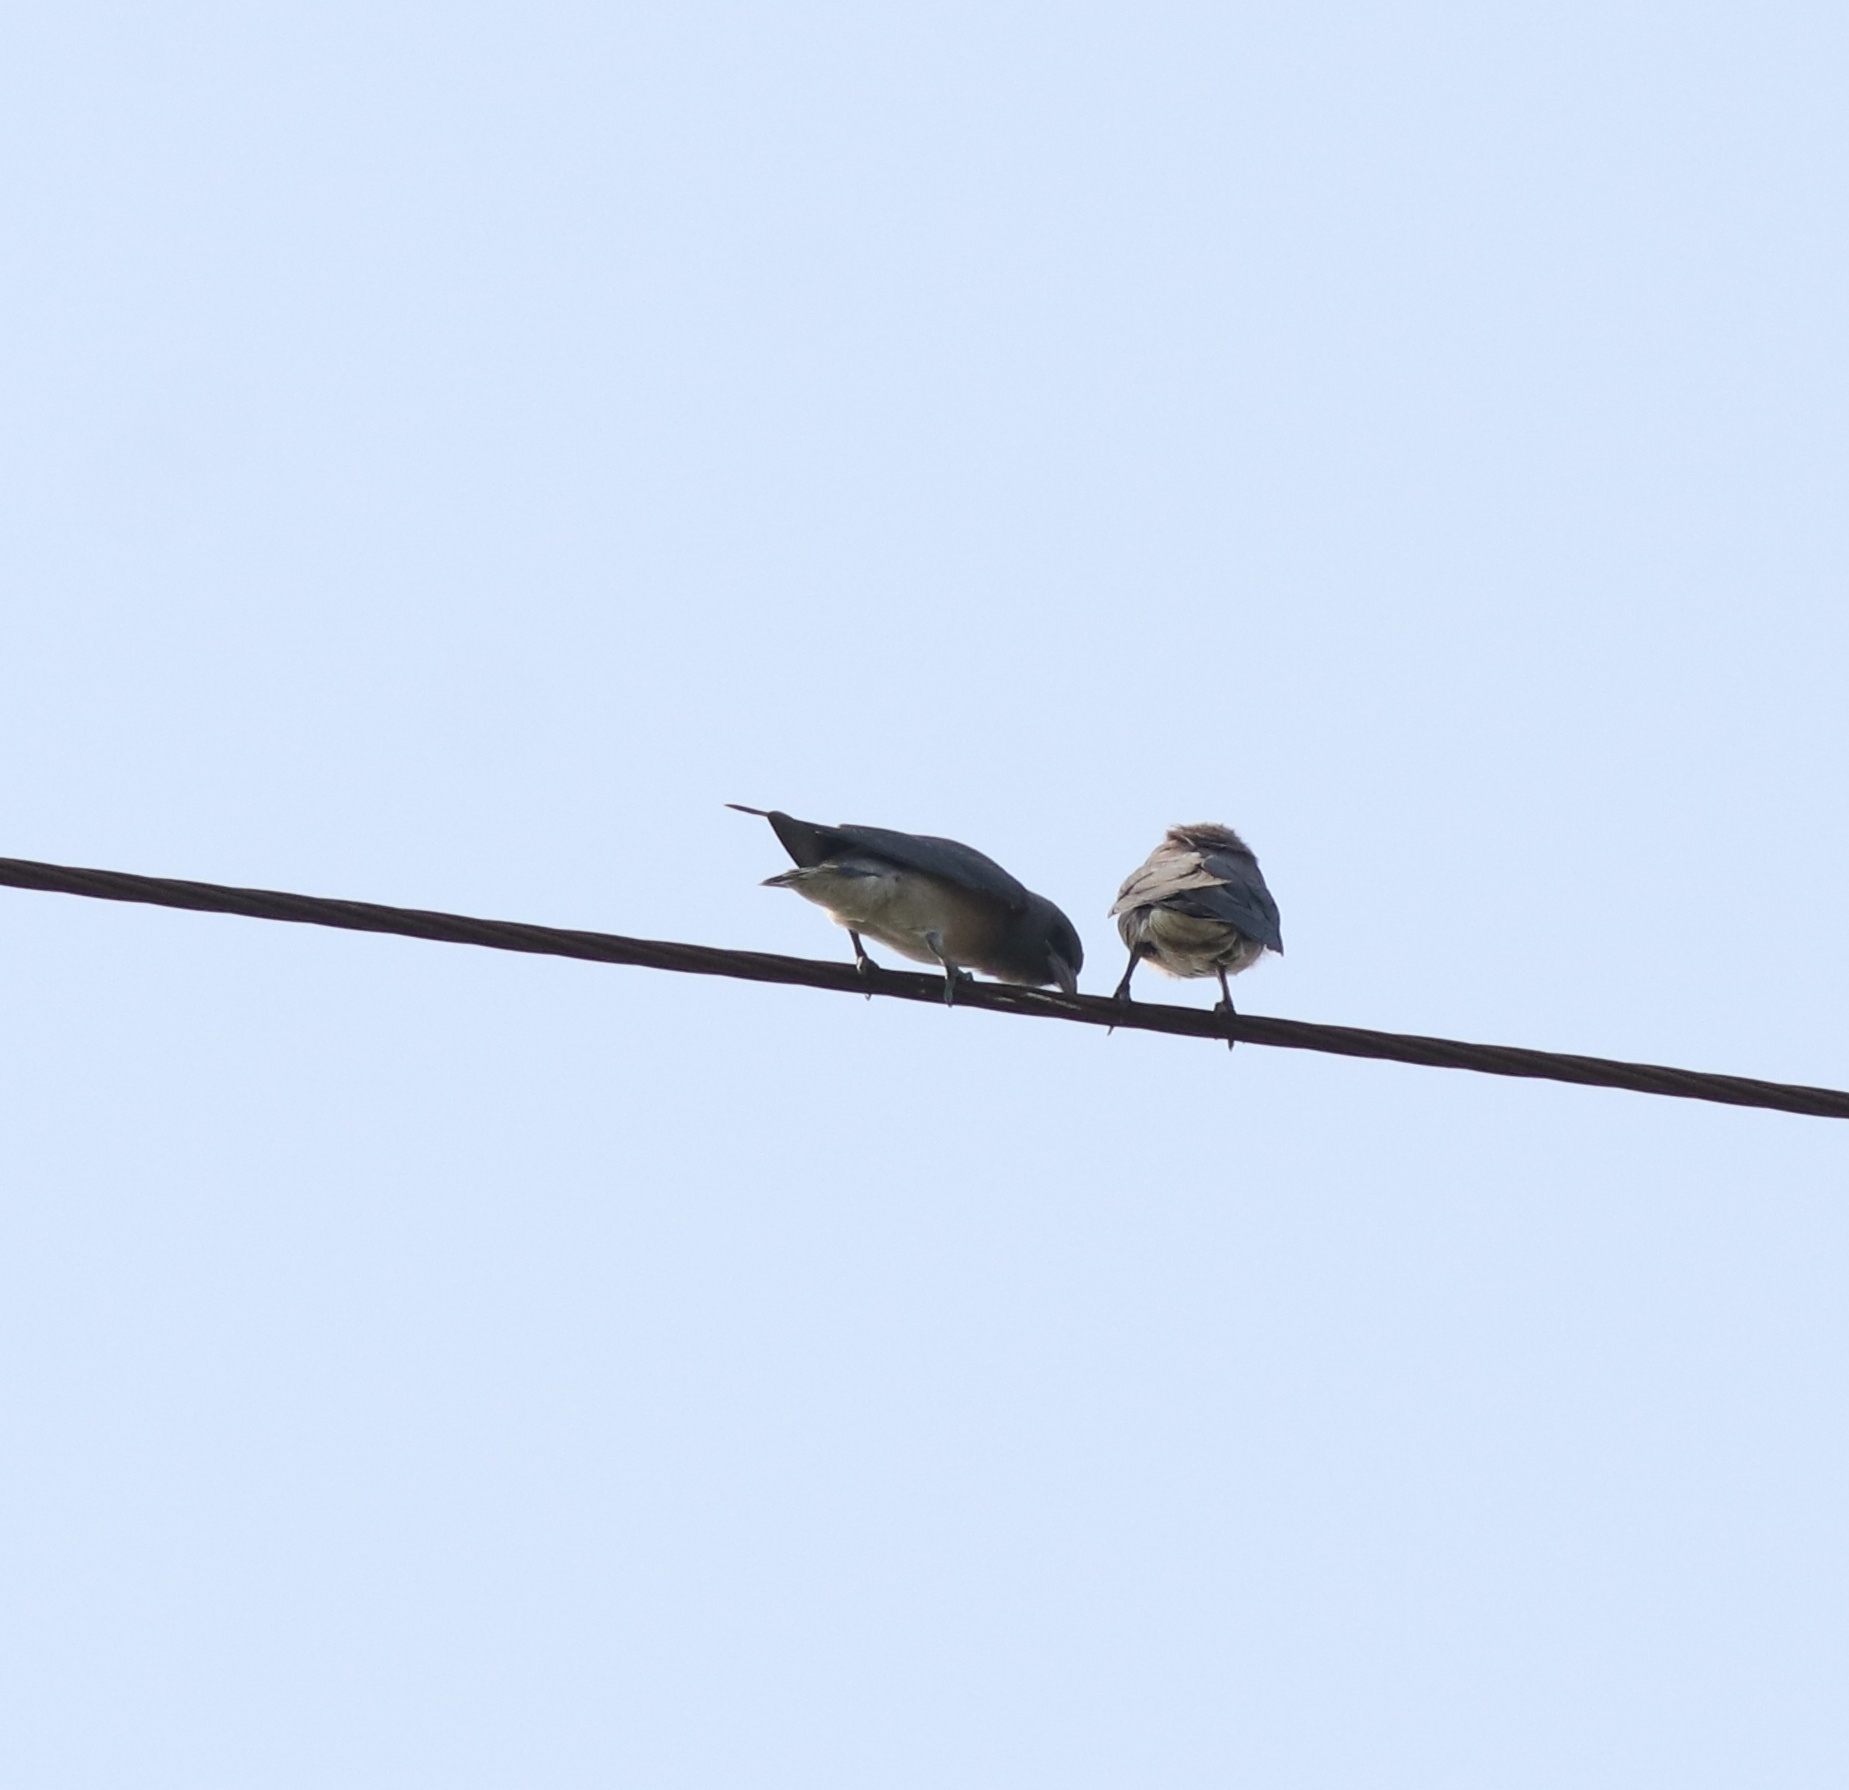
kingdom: Animalia
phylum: Chordata
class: Aves
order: Passeriformes
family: Artamidae
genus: Artamus
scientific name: Artamus fuscus
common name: Ashy woodswallow
